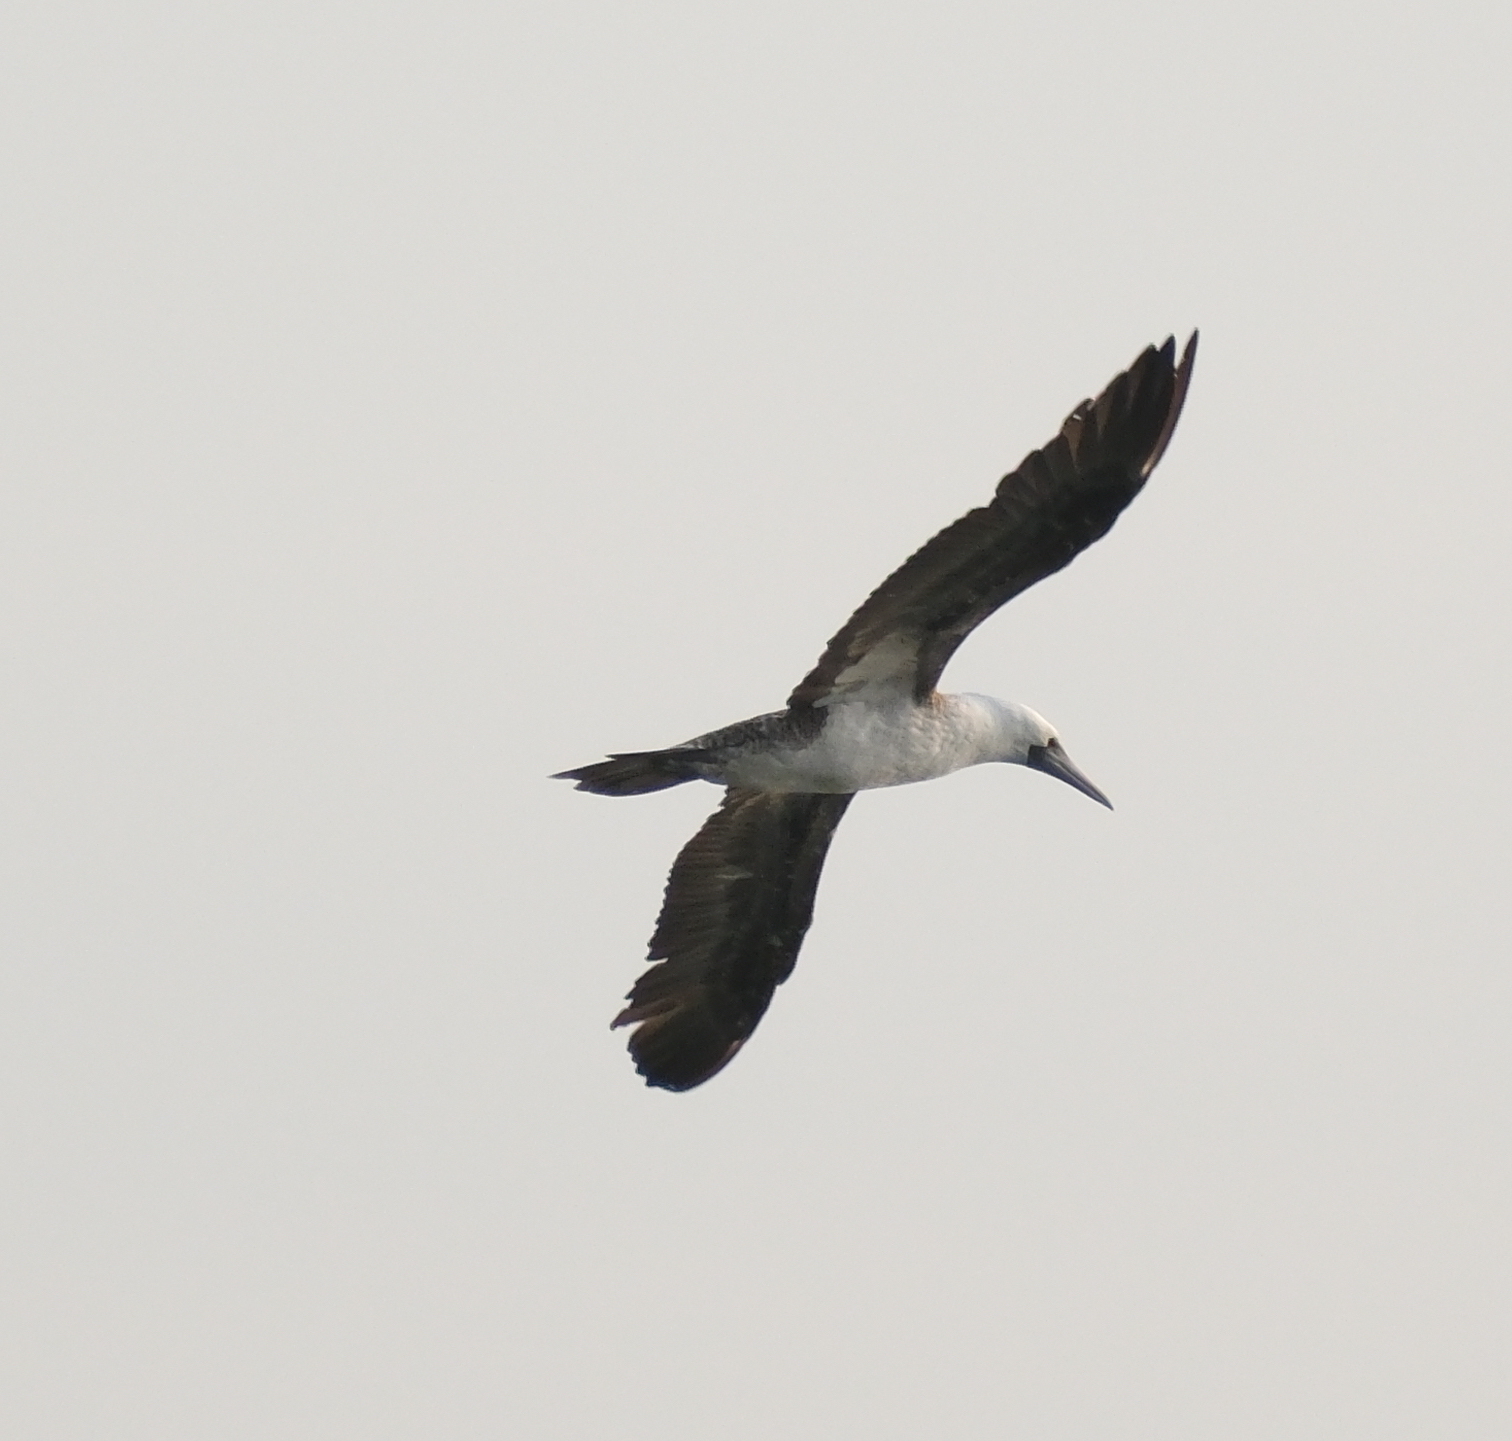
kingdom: Animalia
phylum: Chordata
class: Aves
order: Suliformes
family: Sulidae
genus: Sula
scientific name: Sula variegata
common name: Peruvian booby
